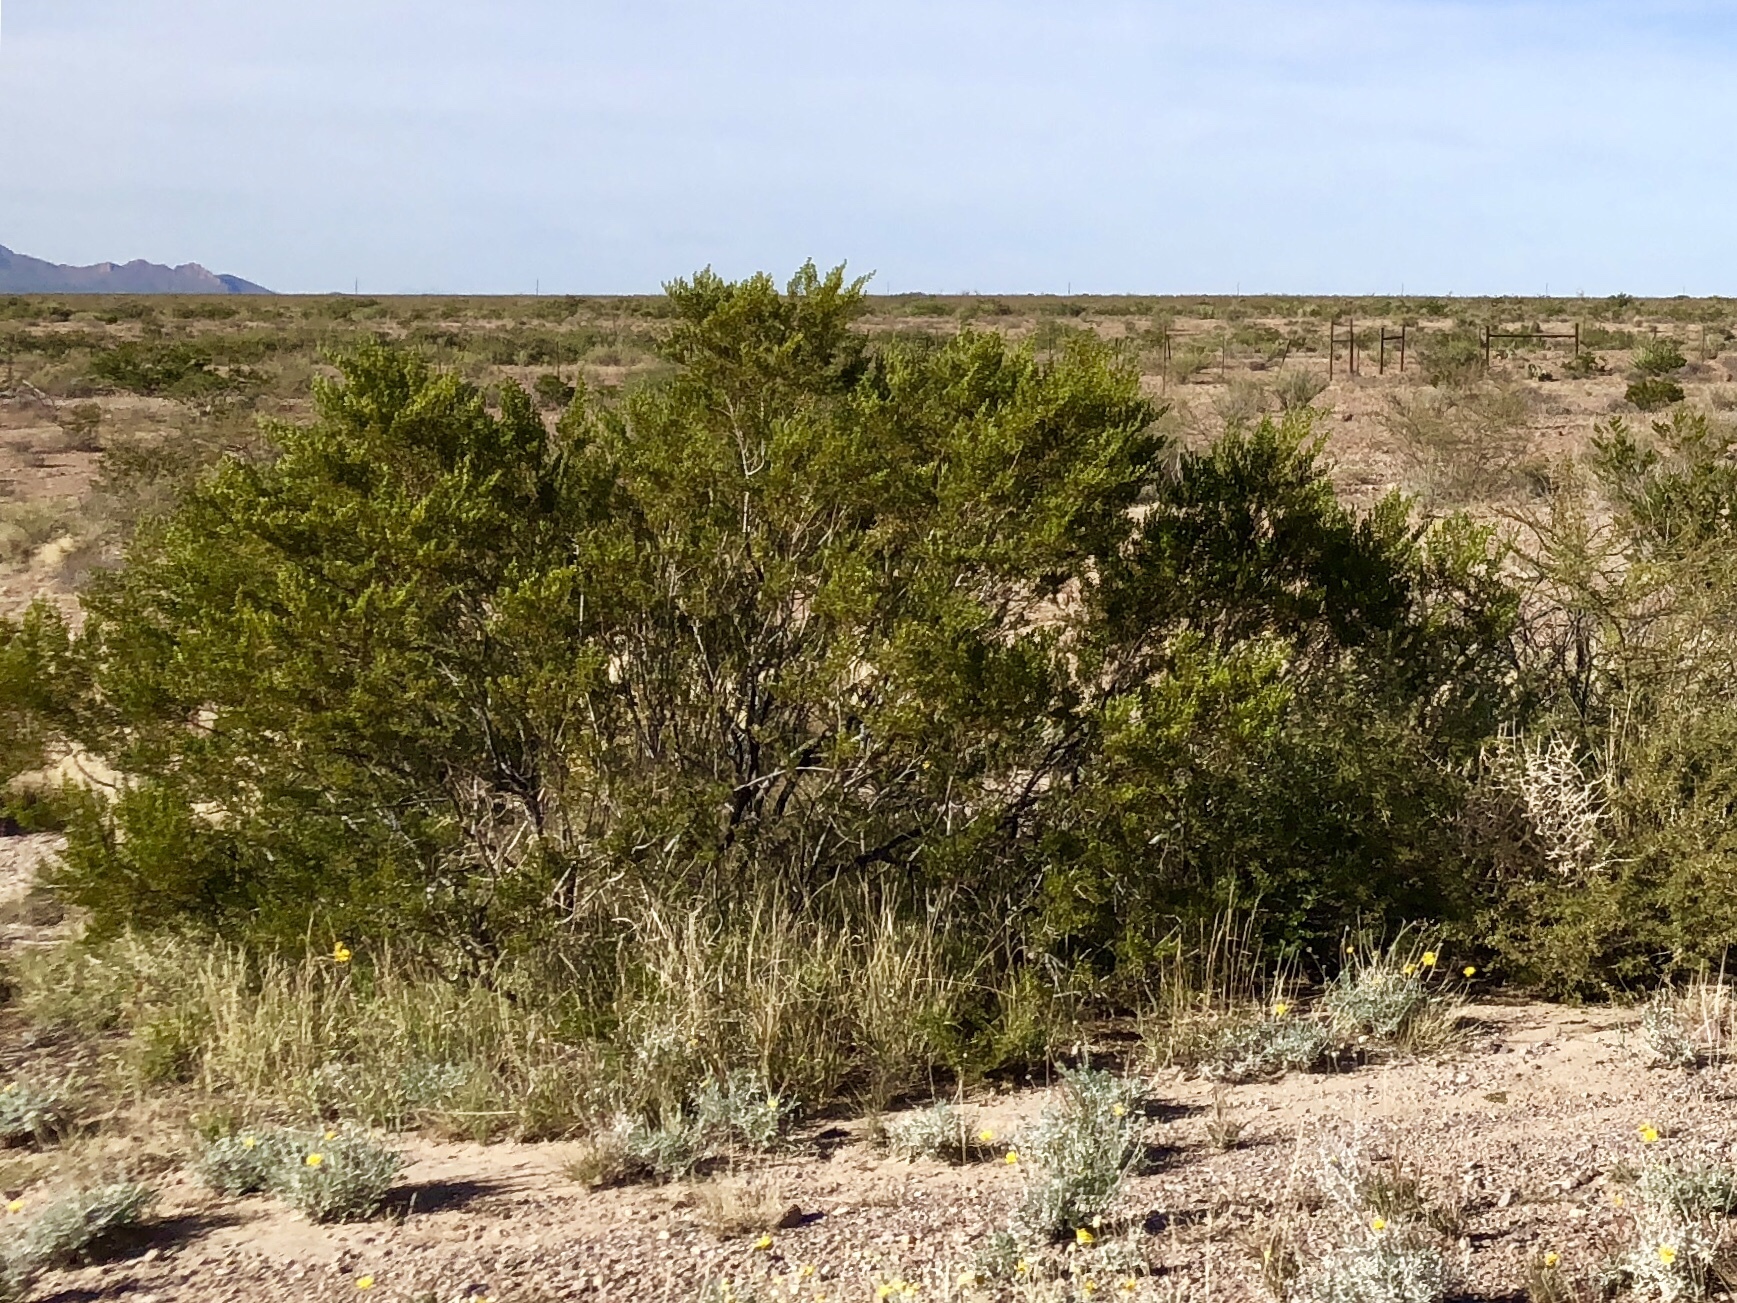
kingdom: Plantae
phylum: Tracheophyta
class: Magnoliopsida
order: Zygophyllales
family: Zygophyllaceae
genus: Larrea
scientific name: Larrea tridentata
